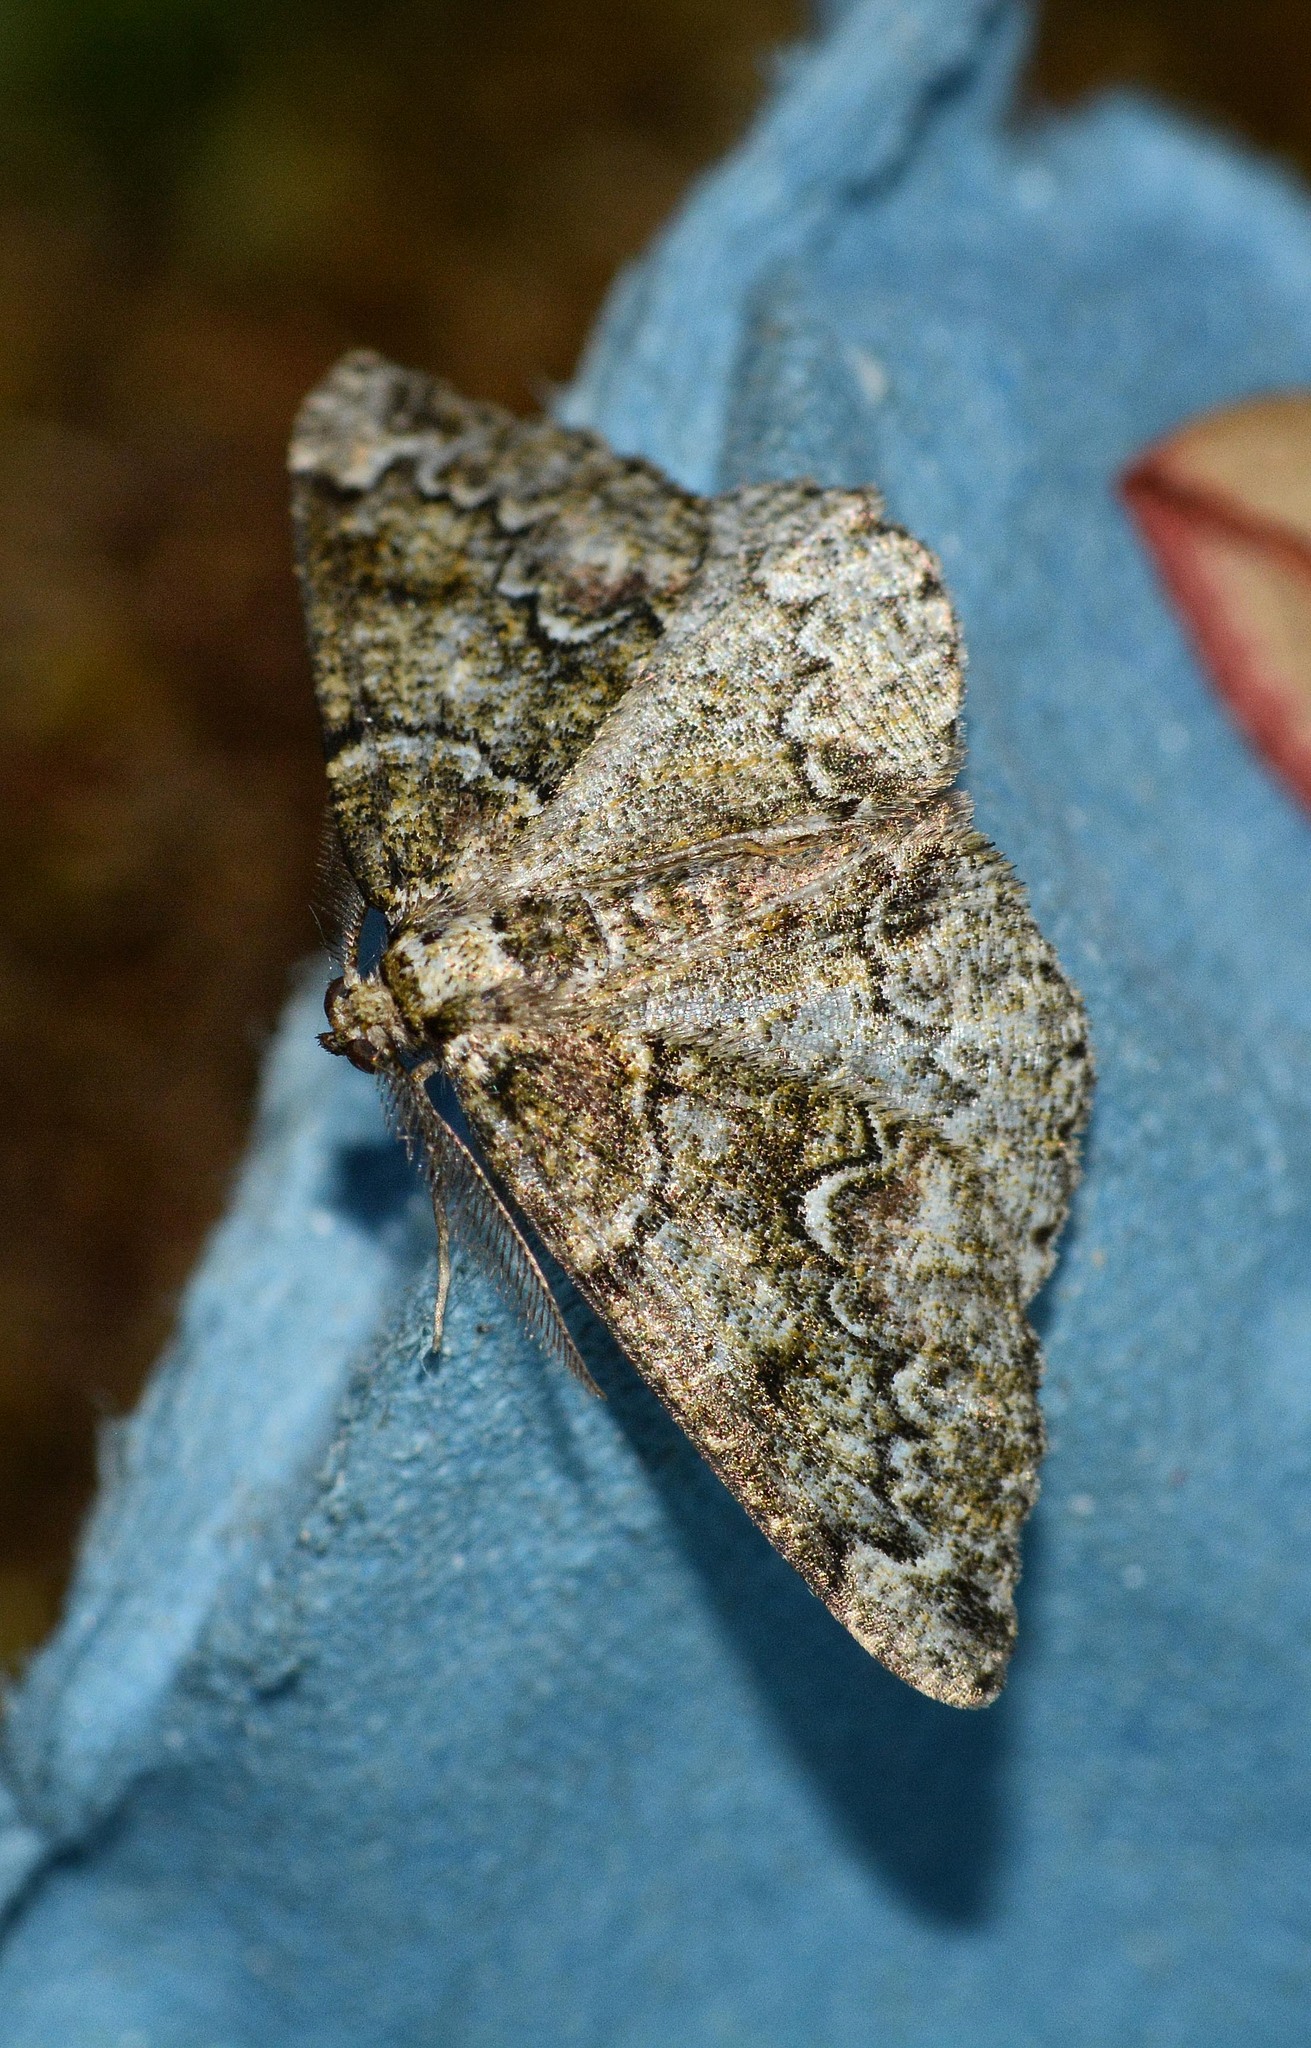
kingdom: Animalia
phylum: Arthropoda
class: Insecta
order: Lepidoptera
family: Geometridae
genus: Cleorodes
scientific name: Cleorodes lichenaria
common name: Brussels lace
